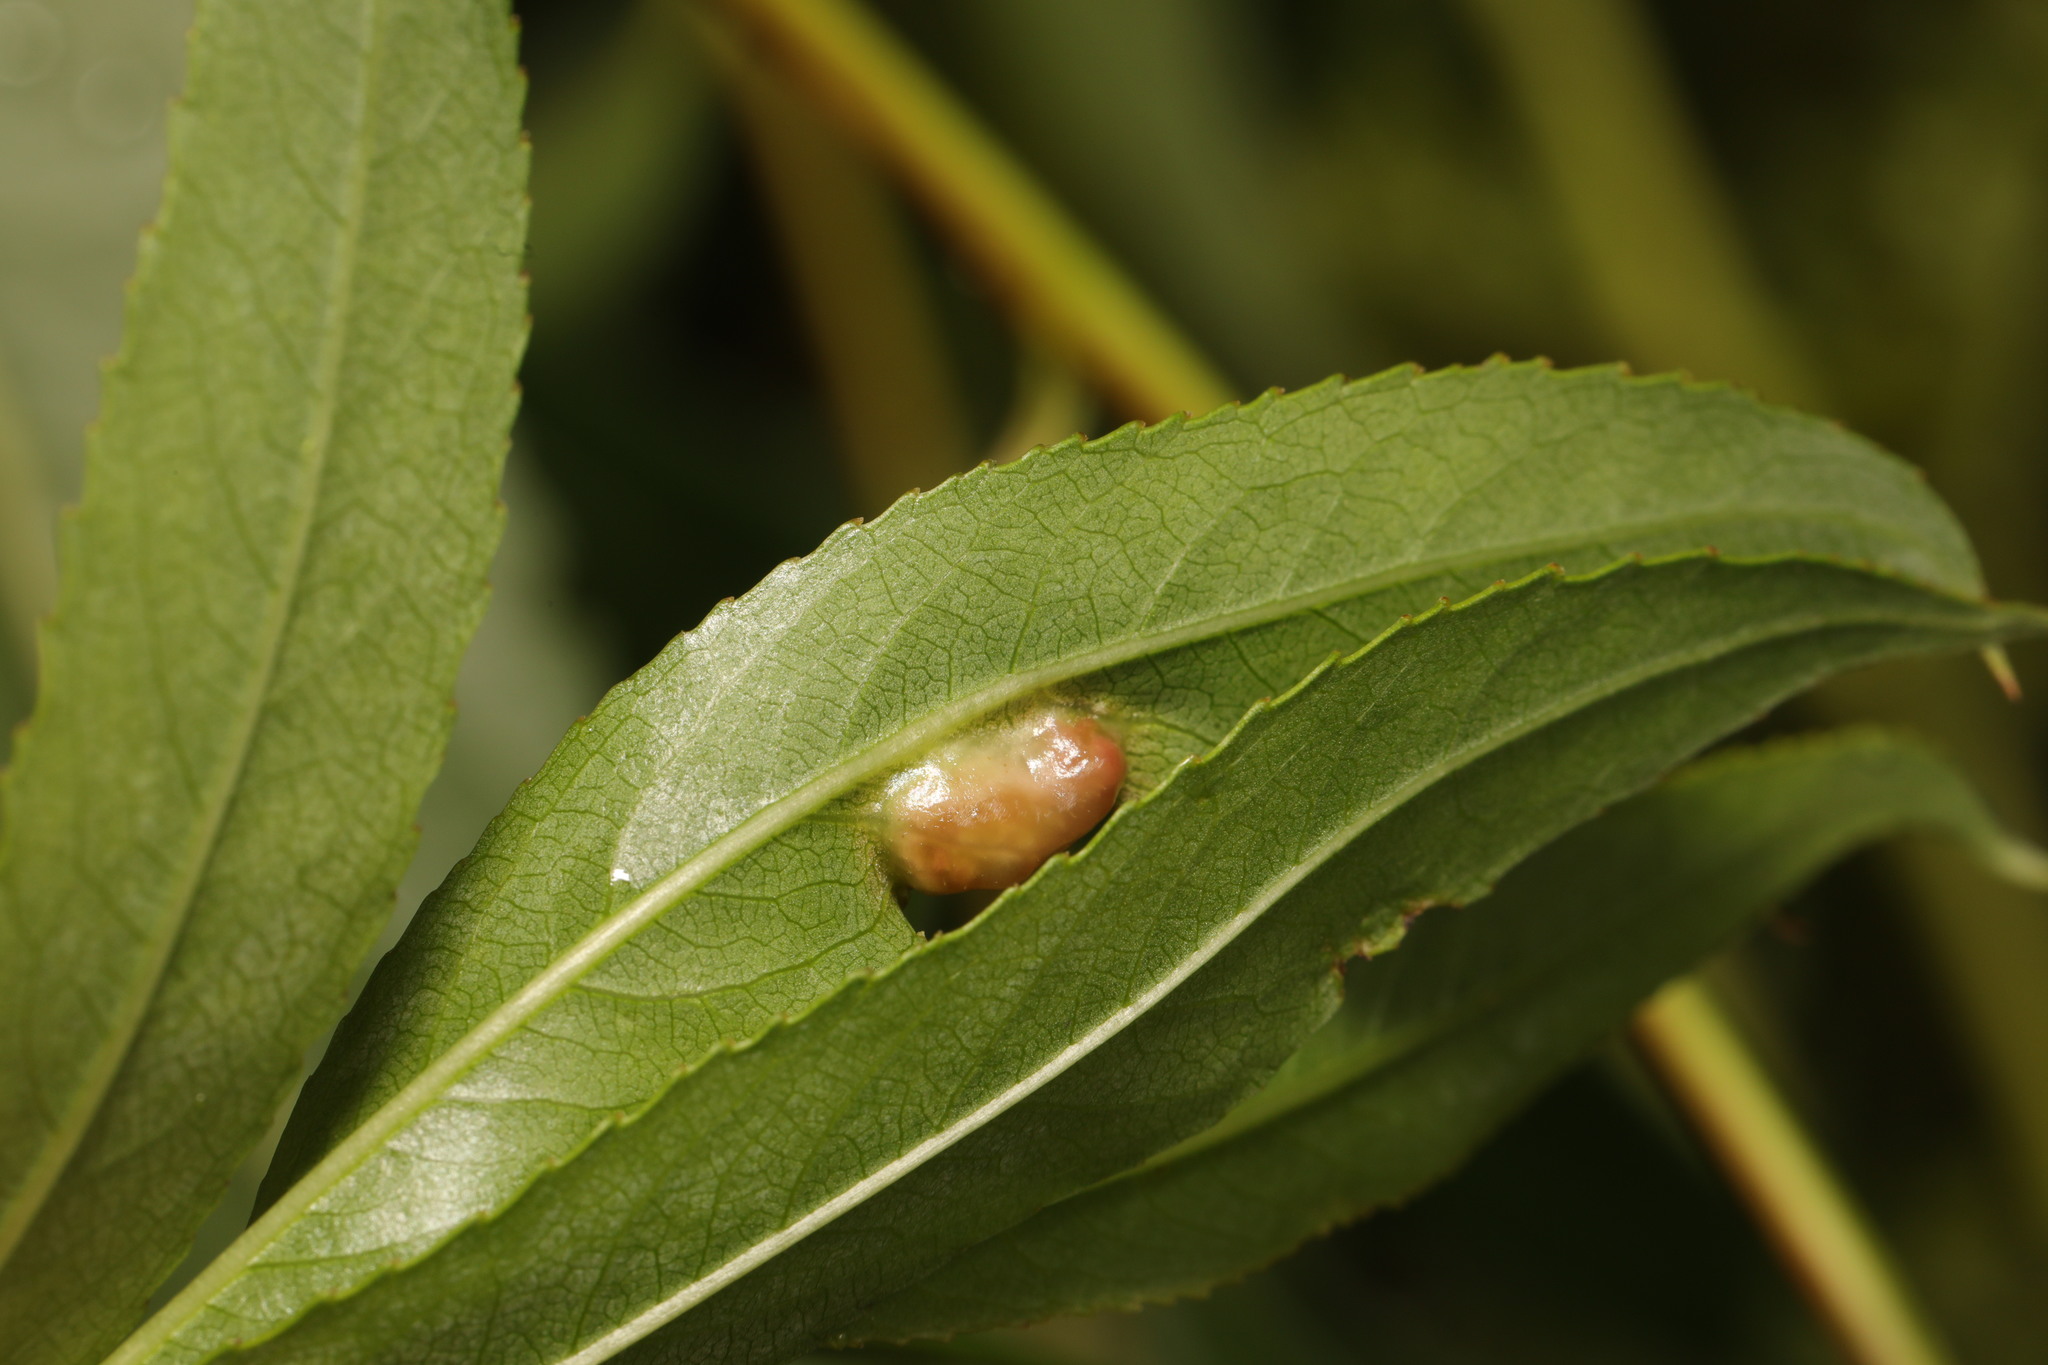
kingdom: Animalia
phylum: Arthropoda
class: Insecta
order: Hymenoptera
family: Tenthredinidae
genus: Pontania
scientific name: Pontania proxima
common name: Common sawfly
